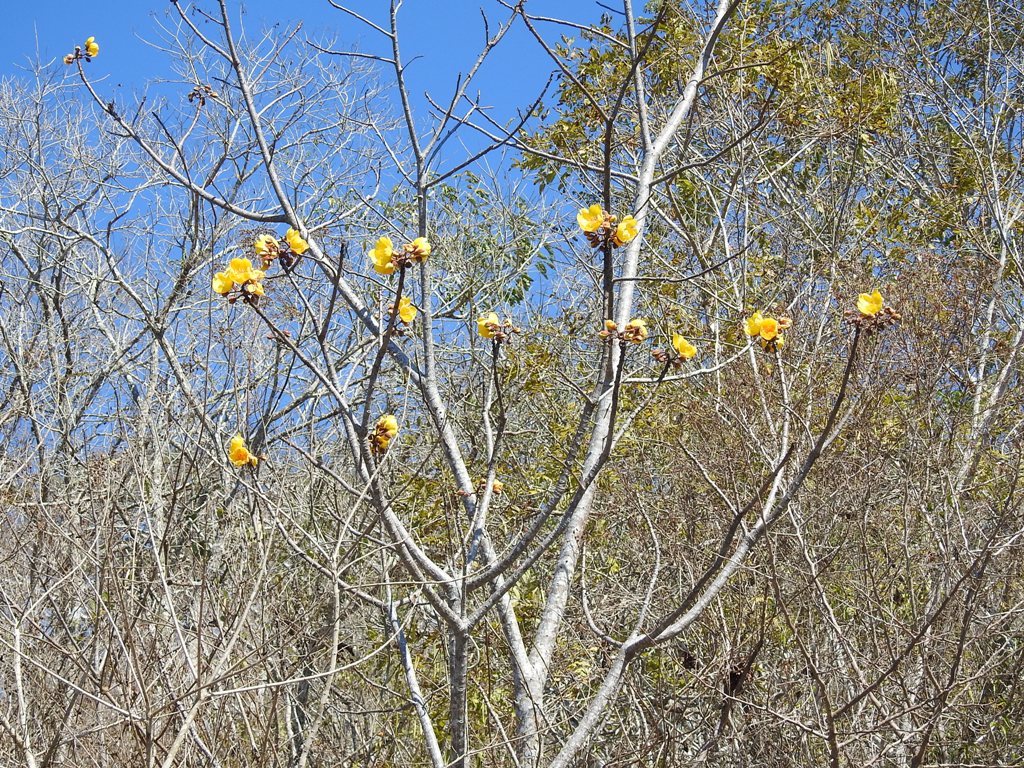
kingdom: Plantae
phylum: Tracheophyta
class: Magnoliopsida
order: Malvales
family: Cochlospermaceae
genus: Cochlospermum
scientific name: Cochlospermum vitifolium
